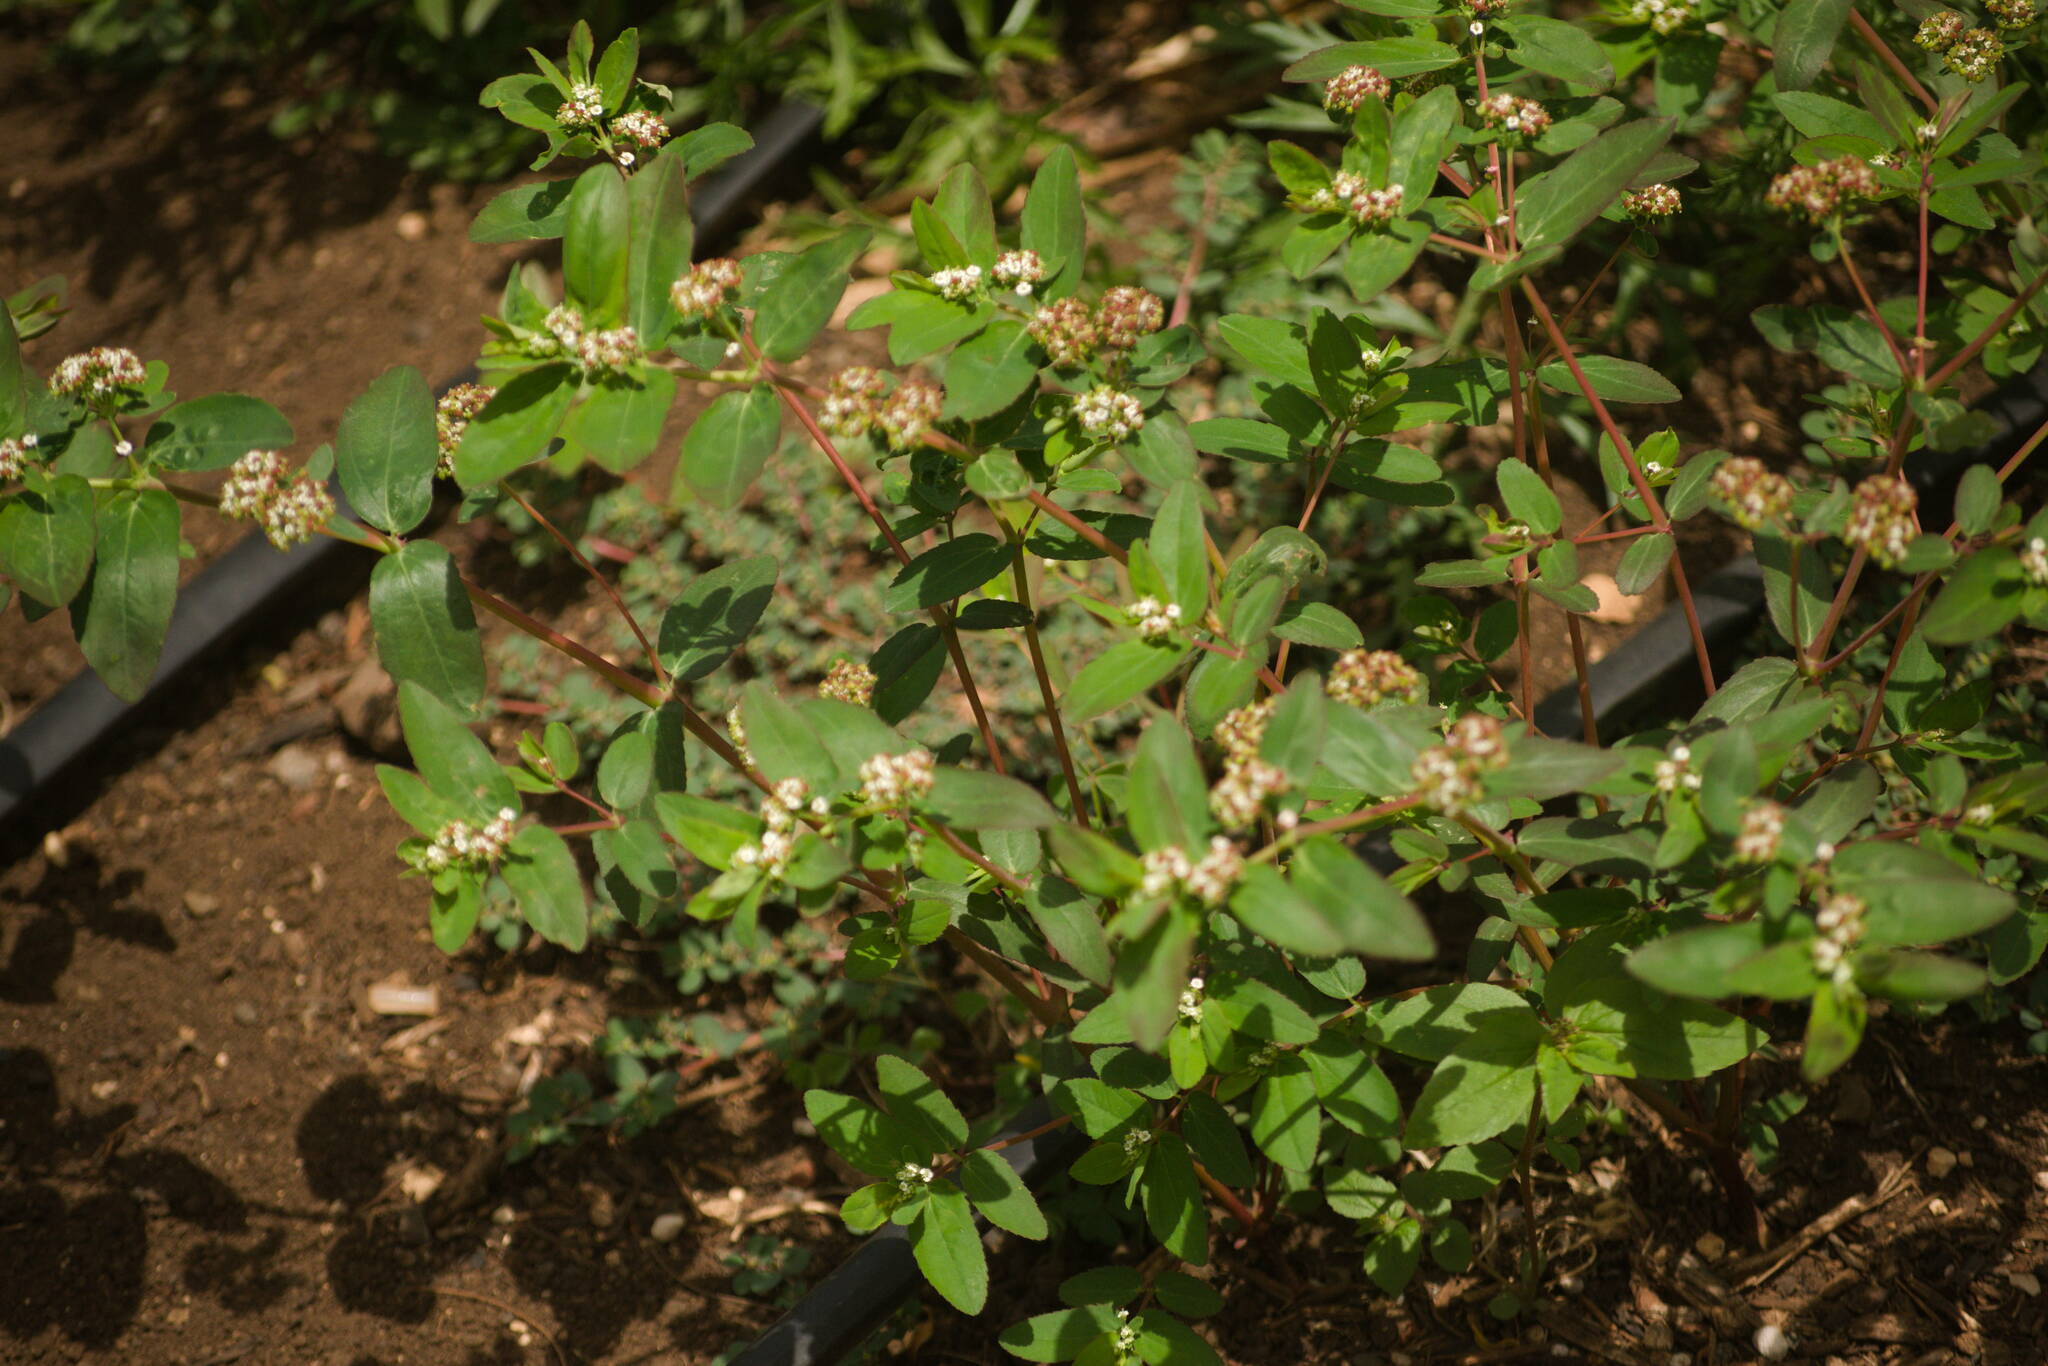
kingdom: Plantae
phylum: Tracheophyta
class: Magnoliopsida
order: Malpighiales
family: Euphorbiaceae
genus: Euphorbia
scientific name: Euphorbia hypericifolia
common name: Graceful sandmat
